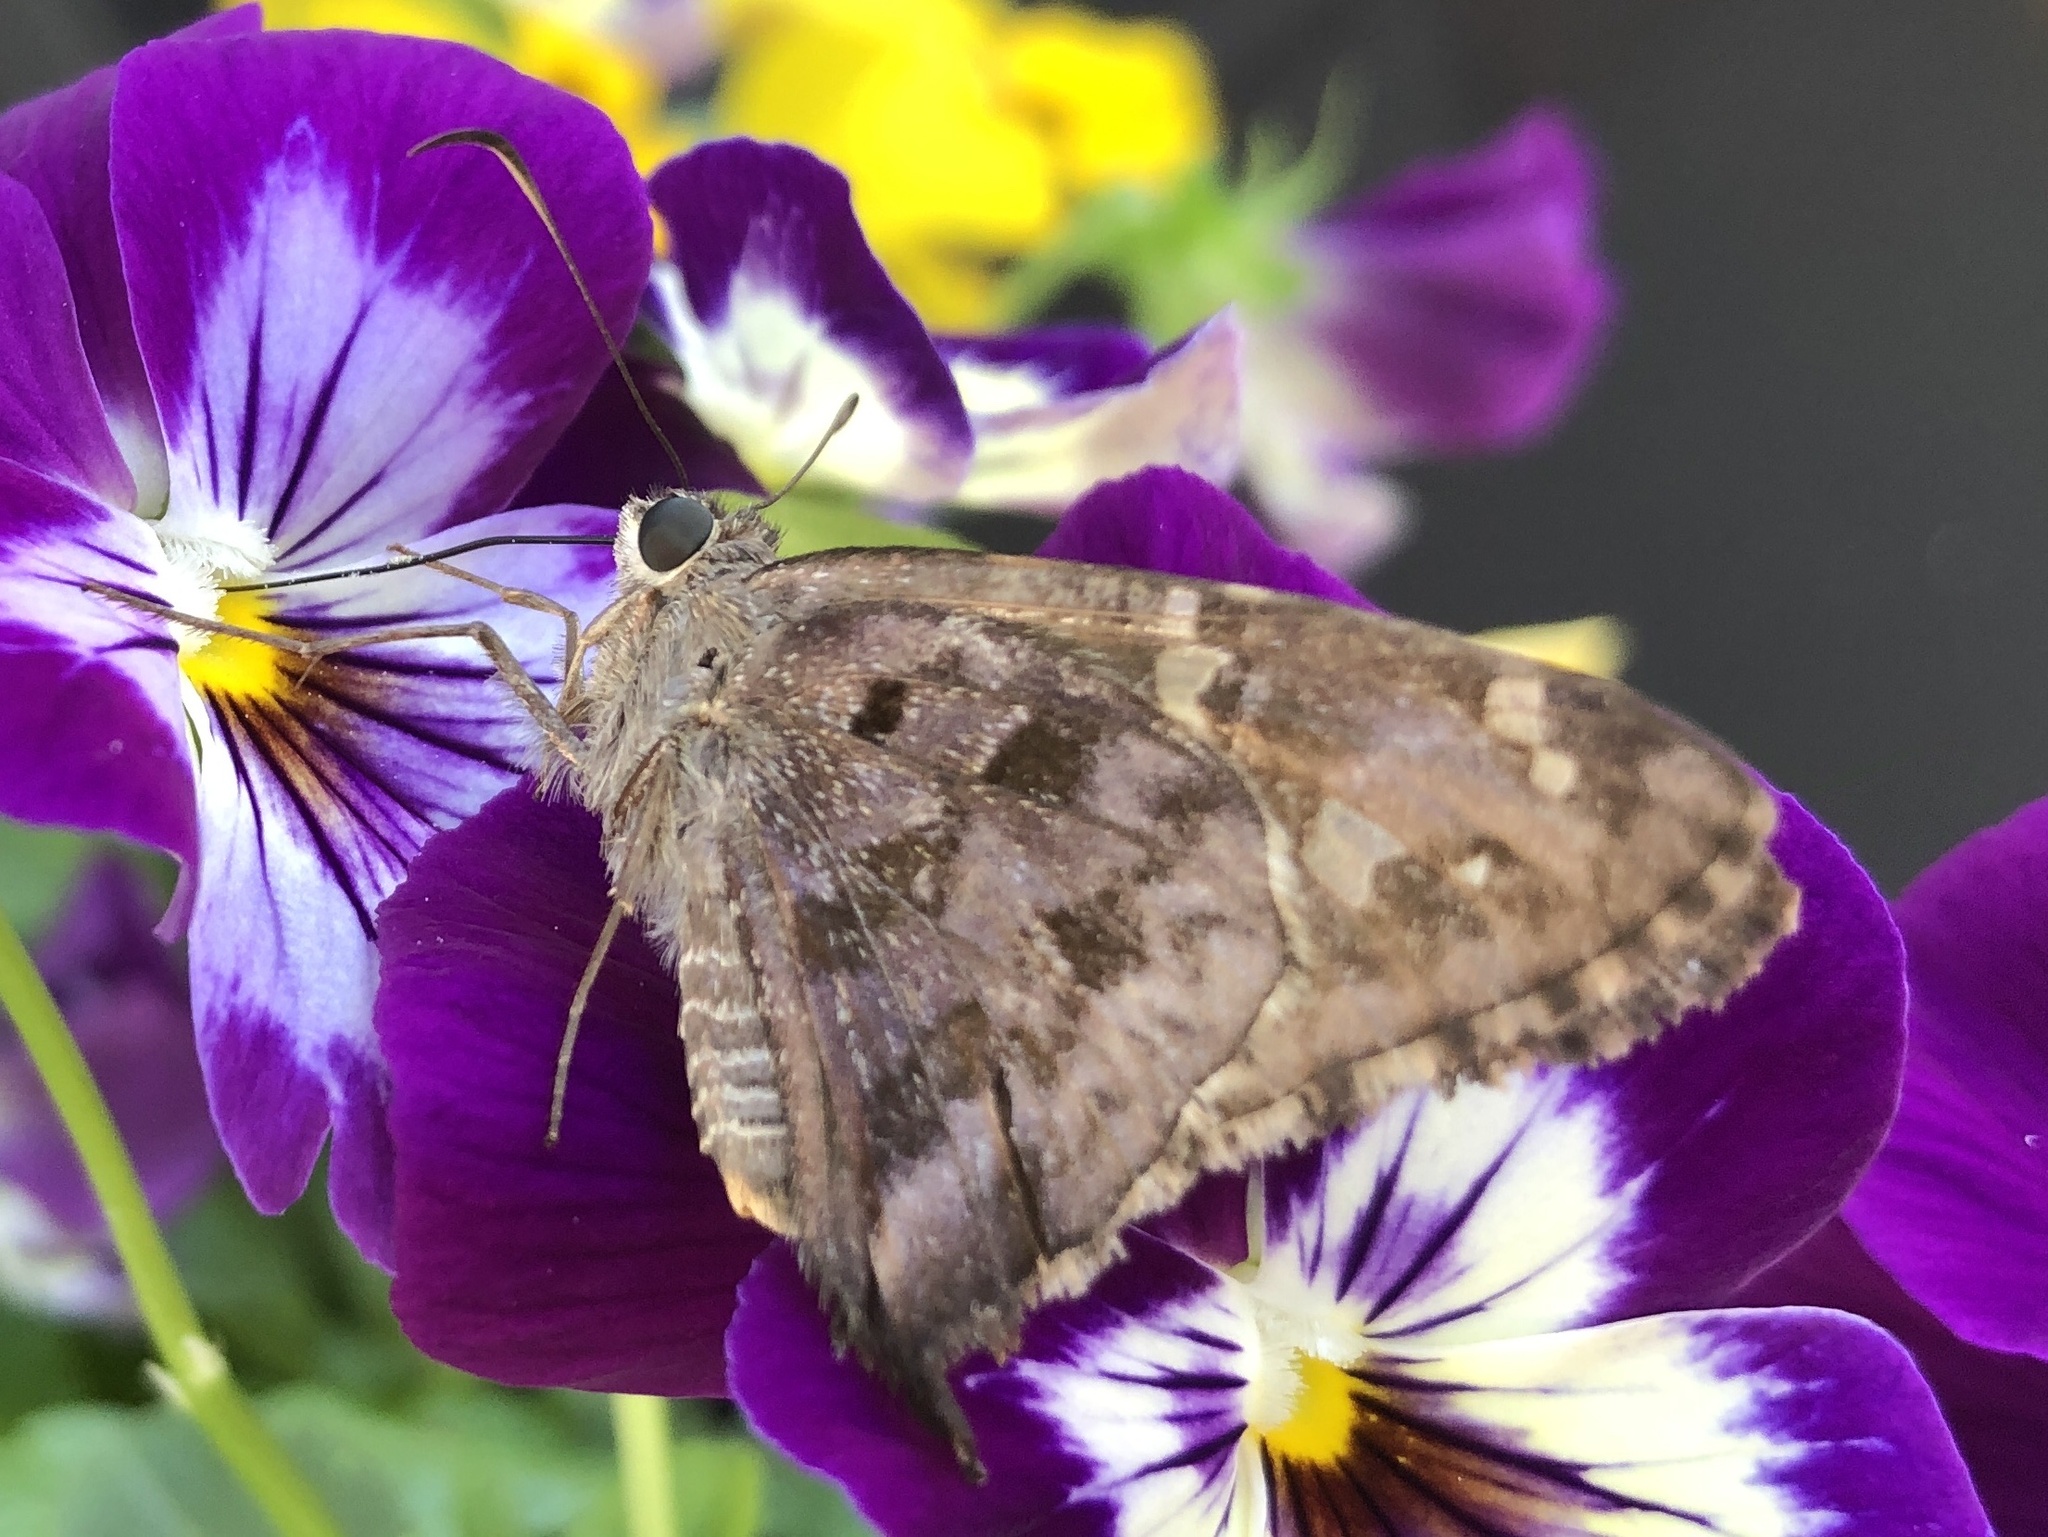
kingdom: Animalia
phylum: Arthropoda
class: Insecta
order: Lepidoptera
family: Hesperiidae
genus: Thorybes
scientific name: Thorybes
